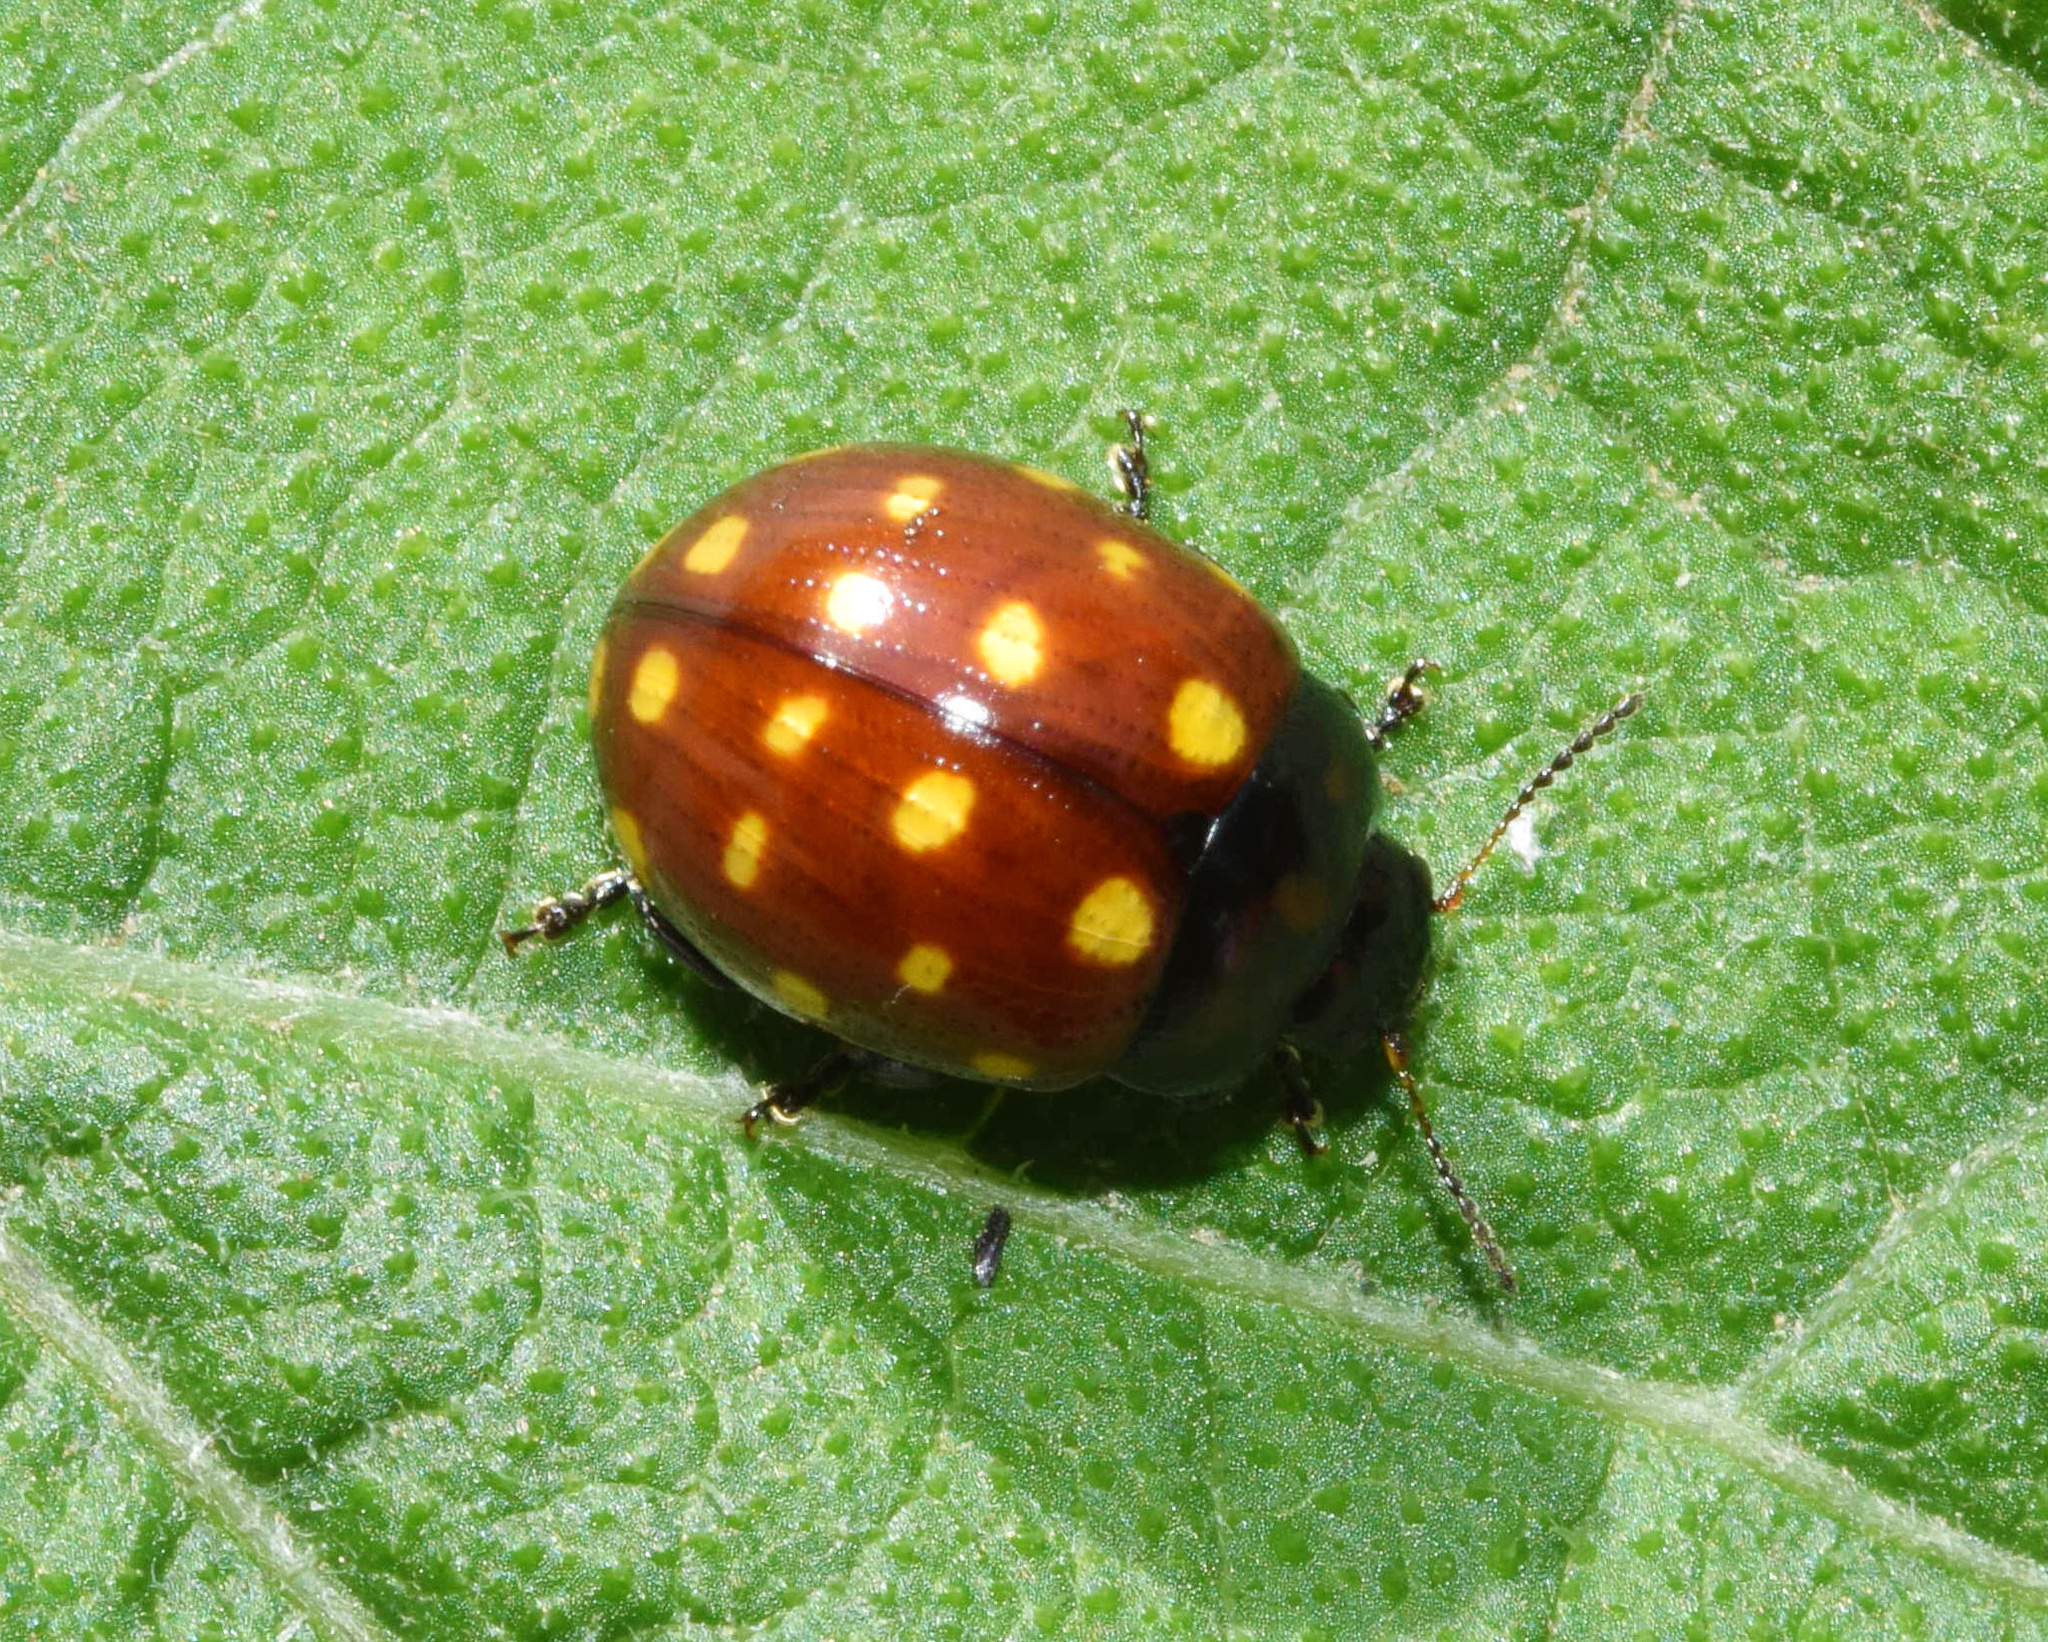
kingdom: Animalia
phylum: Arthropoda
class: Insecta
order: Coleoptera
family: Chrysomelidae
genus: Chrysolina
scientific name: Chrysolina
